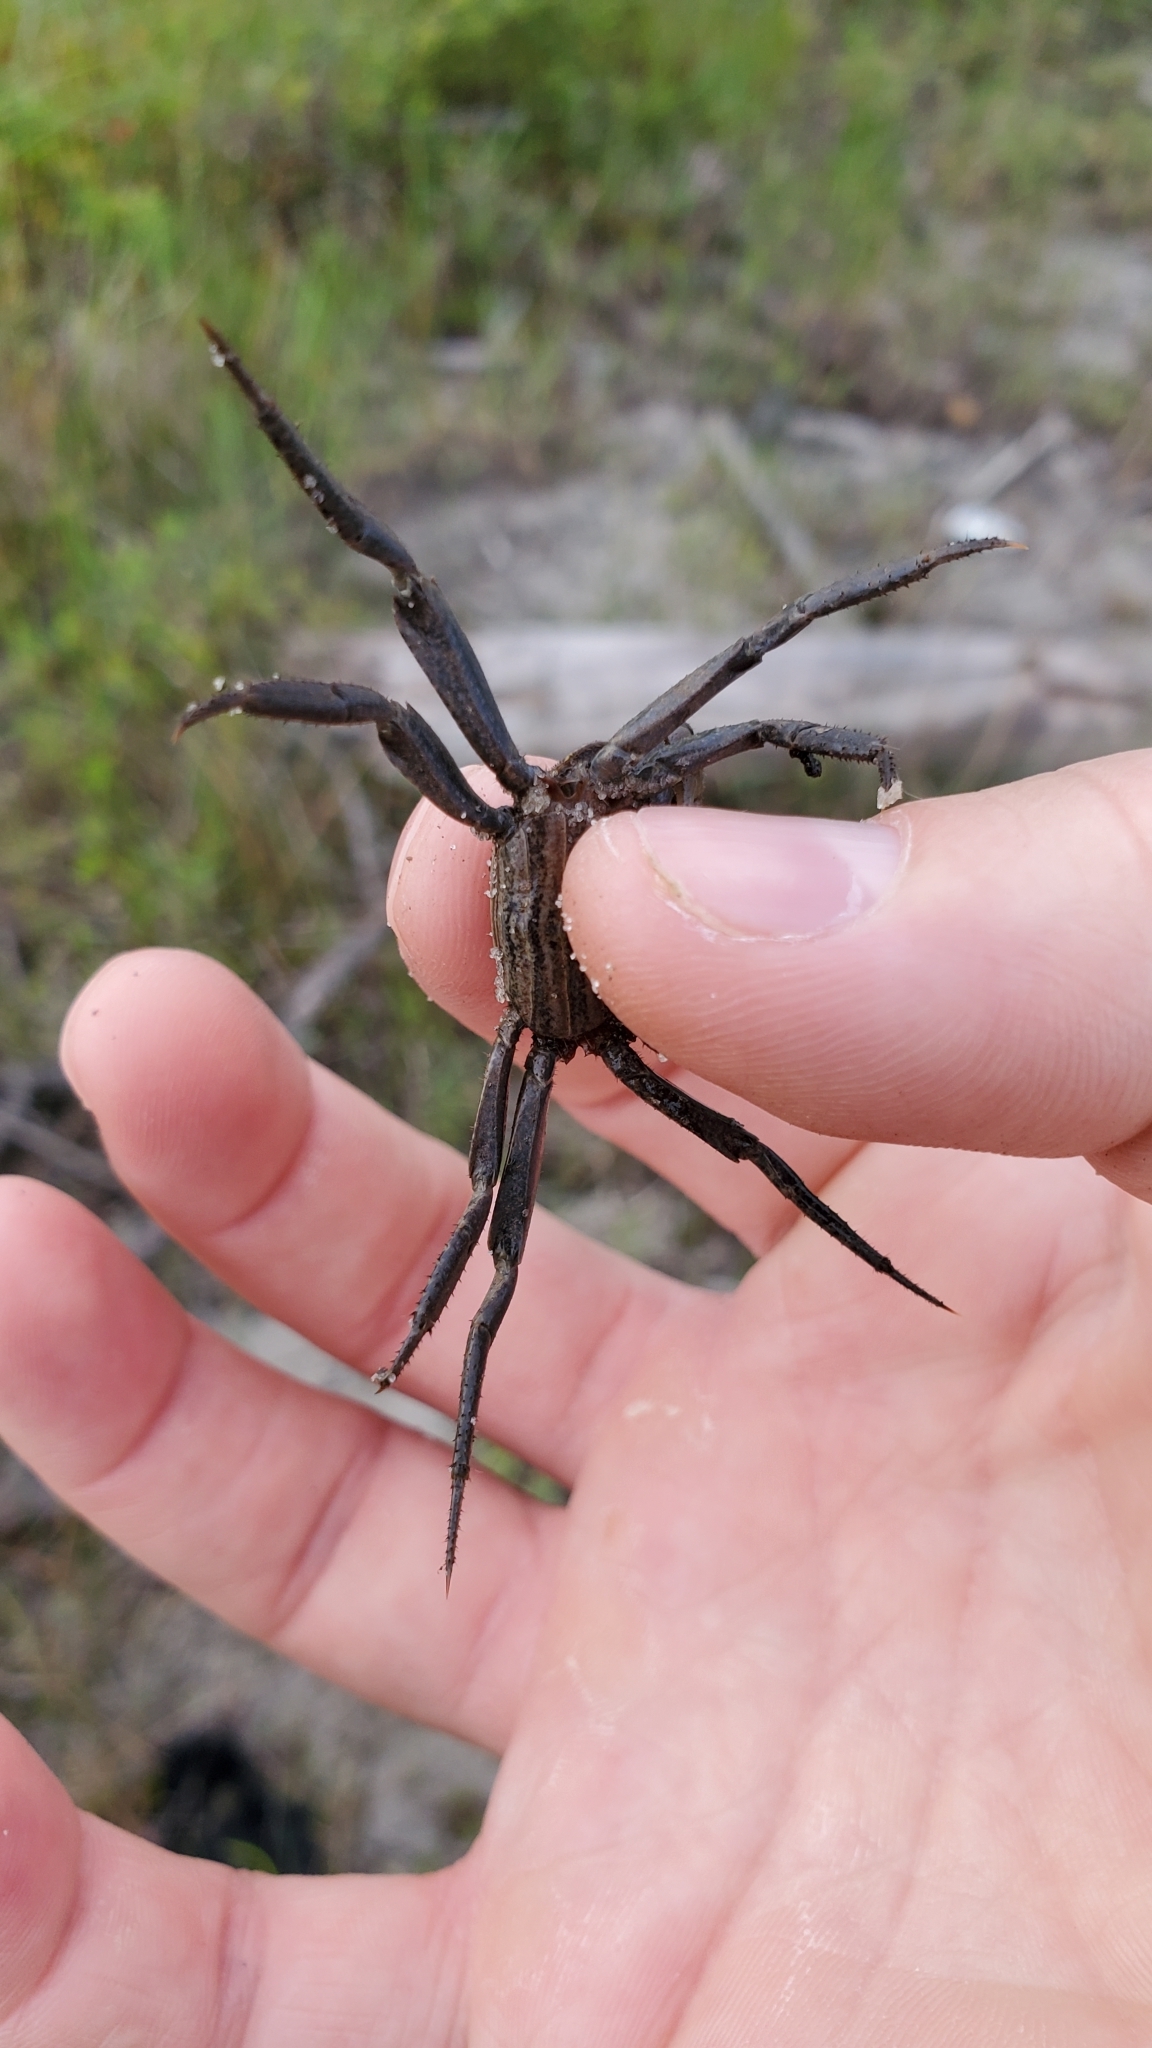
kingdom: Animalia
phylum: Arthropoda
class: Malacostraca
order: Decapoda
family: Sesarmidae
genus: Armases
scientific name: Armases cinereum
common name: Squareback marsh crab
